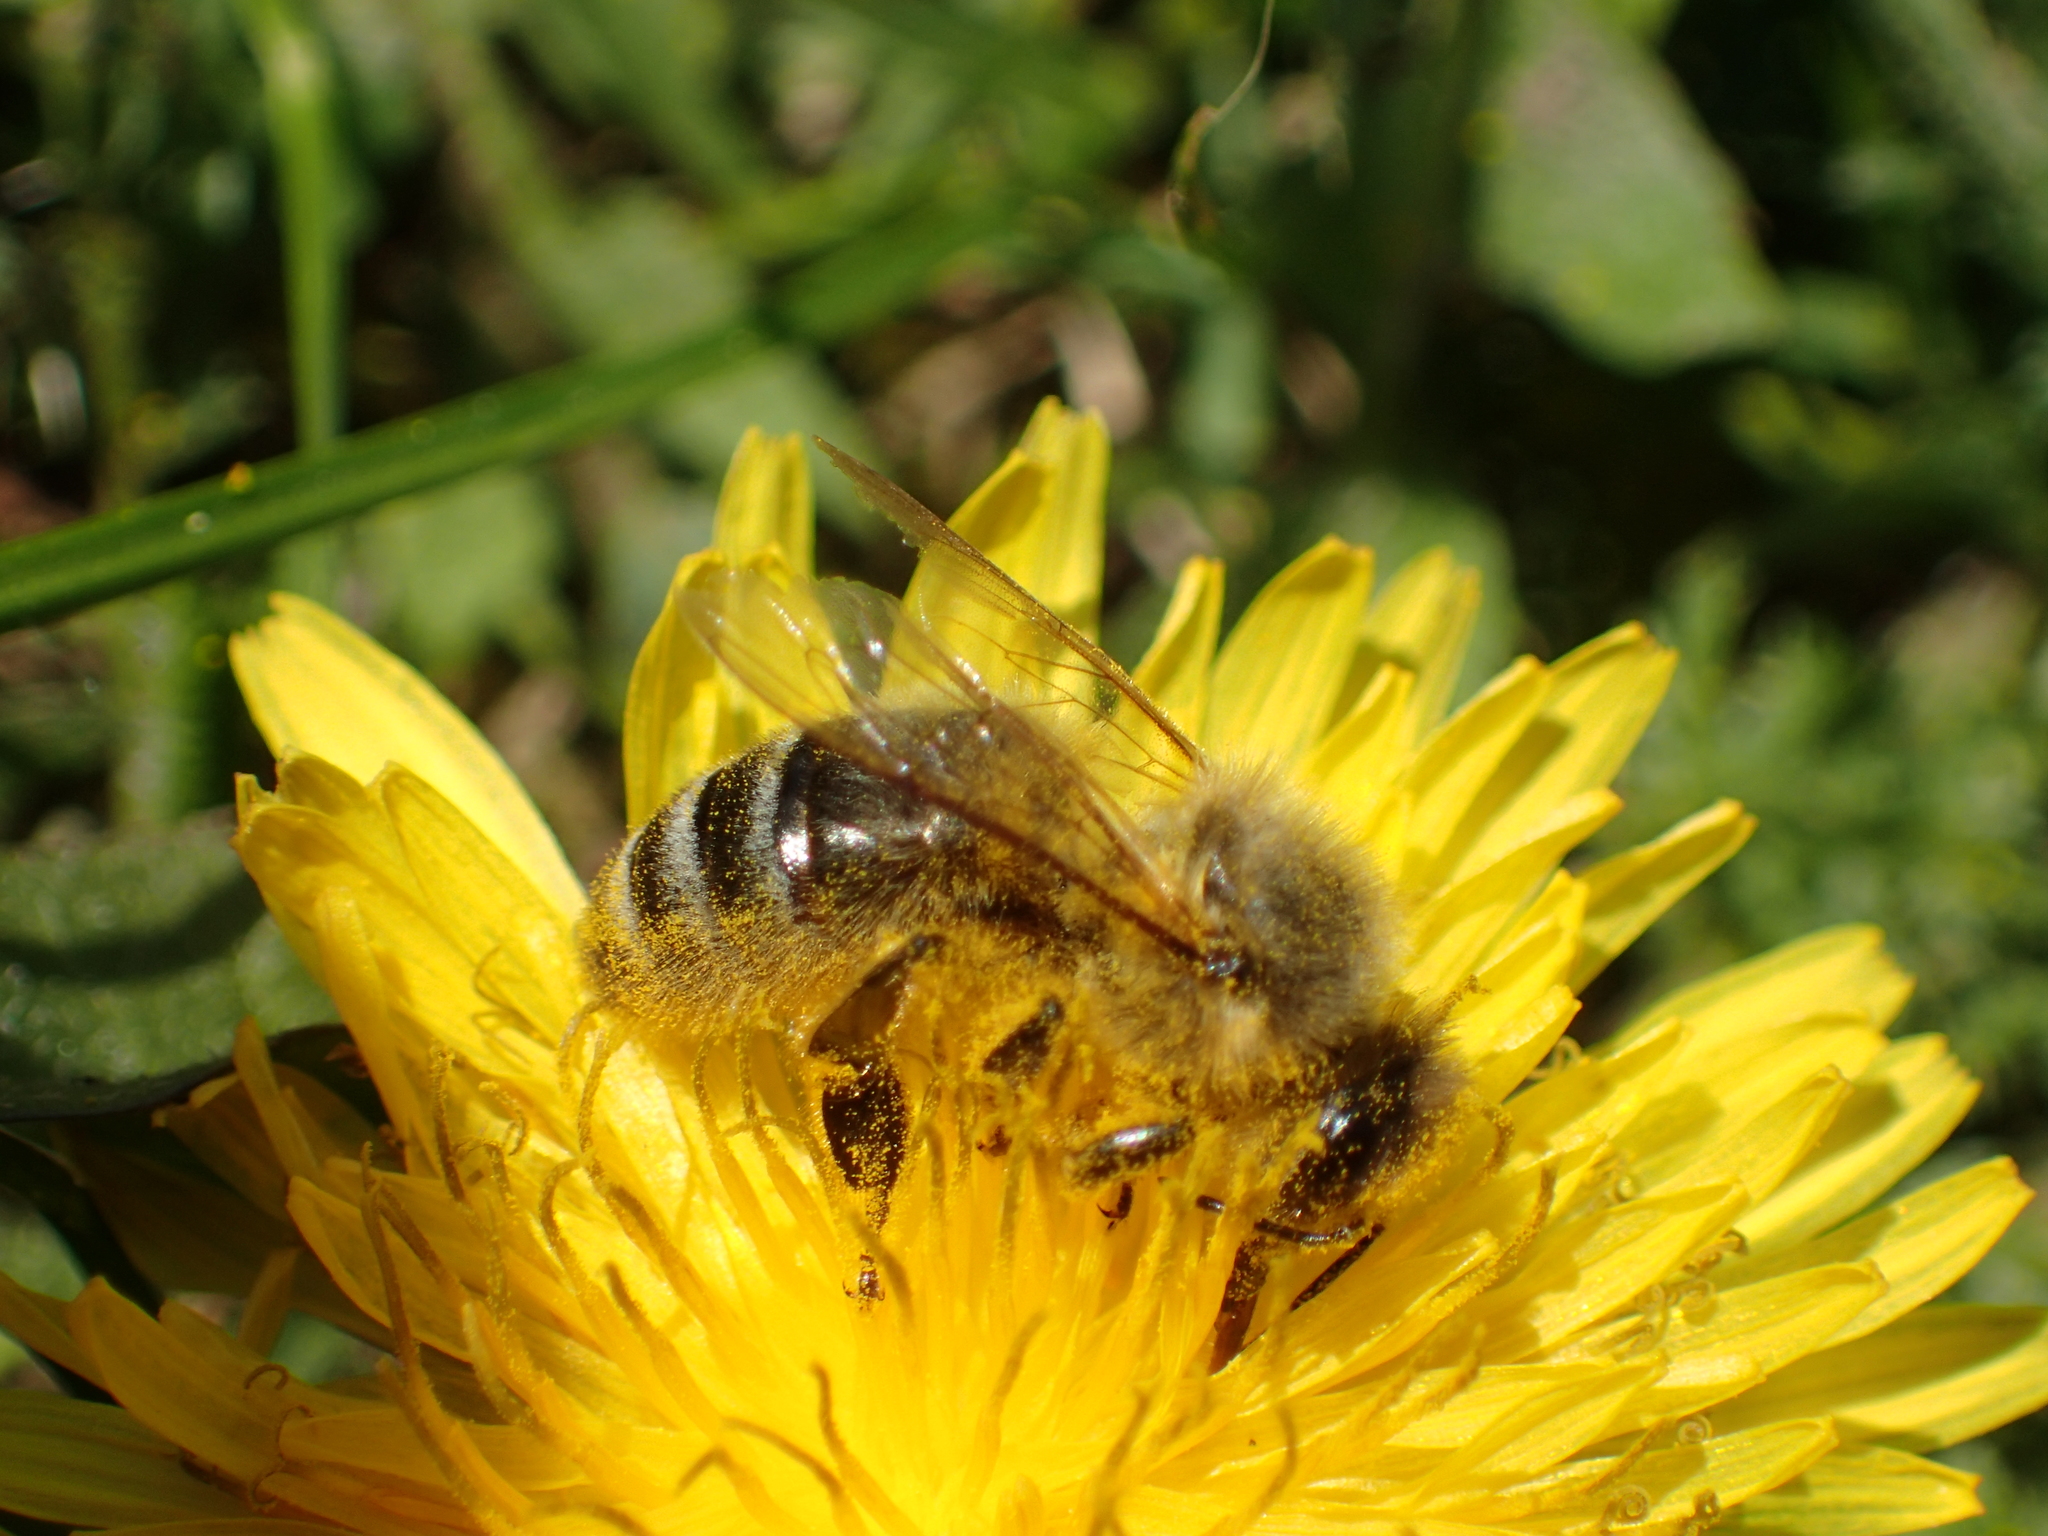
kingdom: Animalia
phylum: Arthropoda
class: Insecta
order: Hymenoptera
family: Apidae
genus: Apis
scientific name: Apis mellifera
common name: Honey bee
